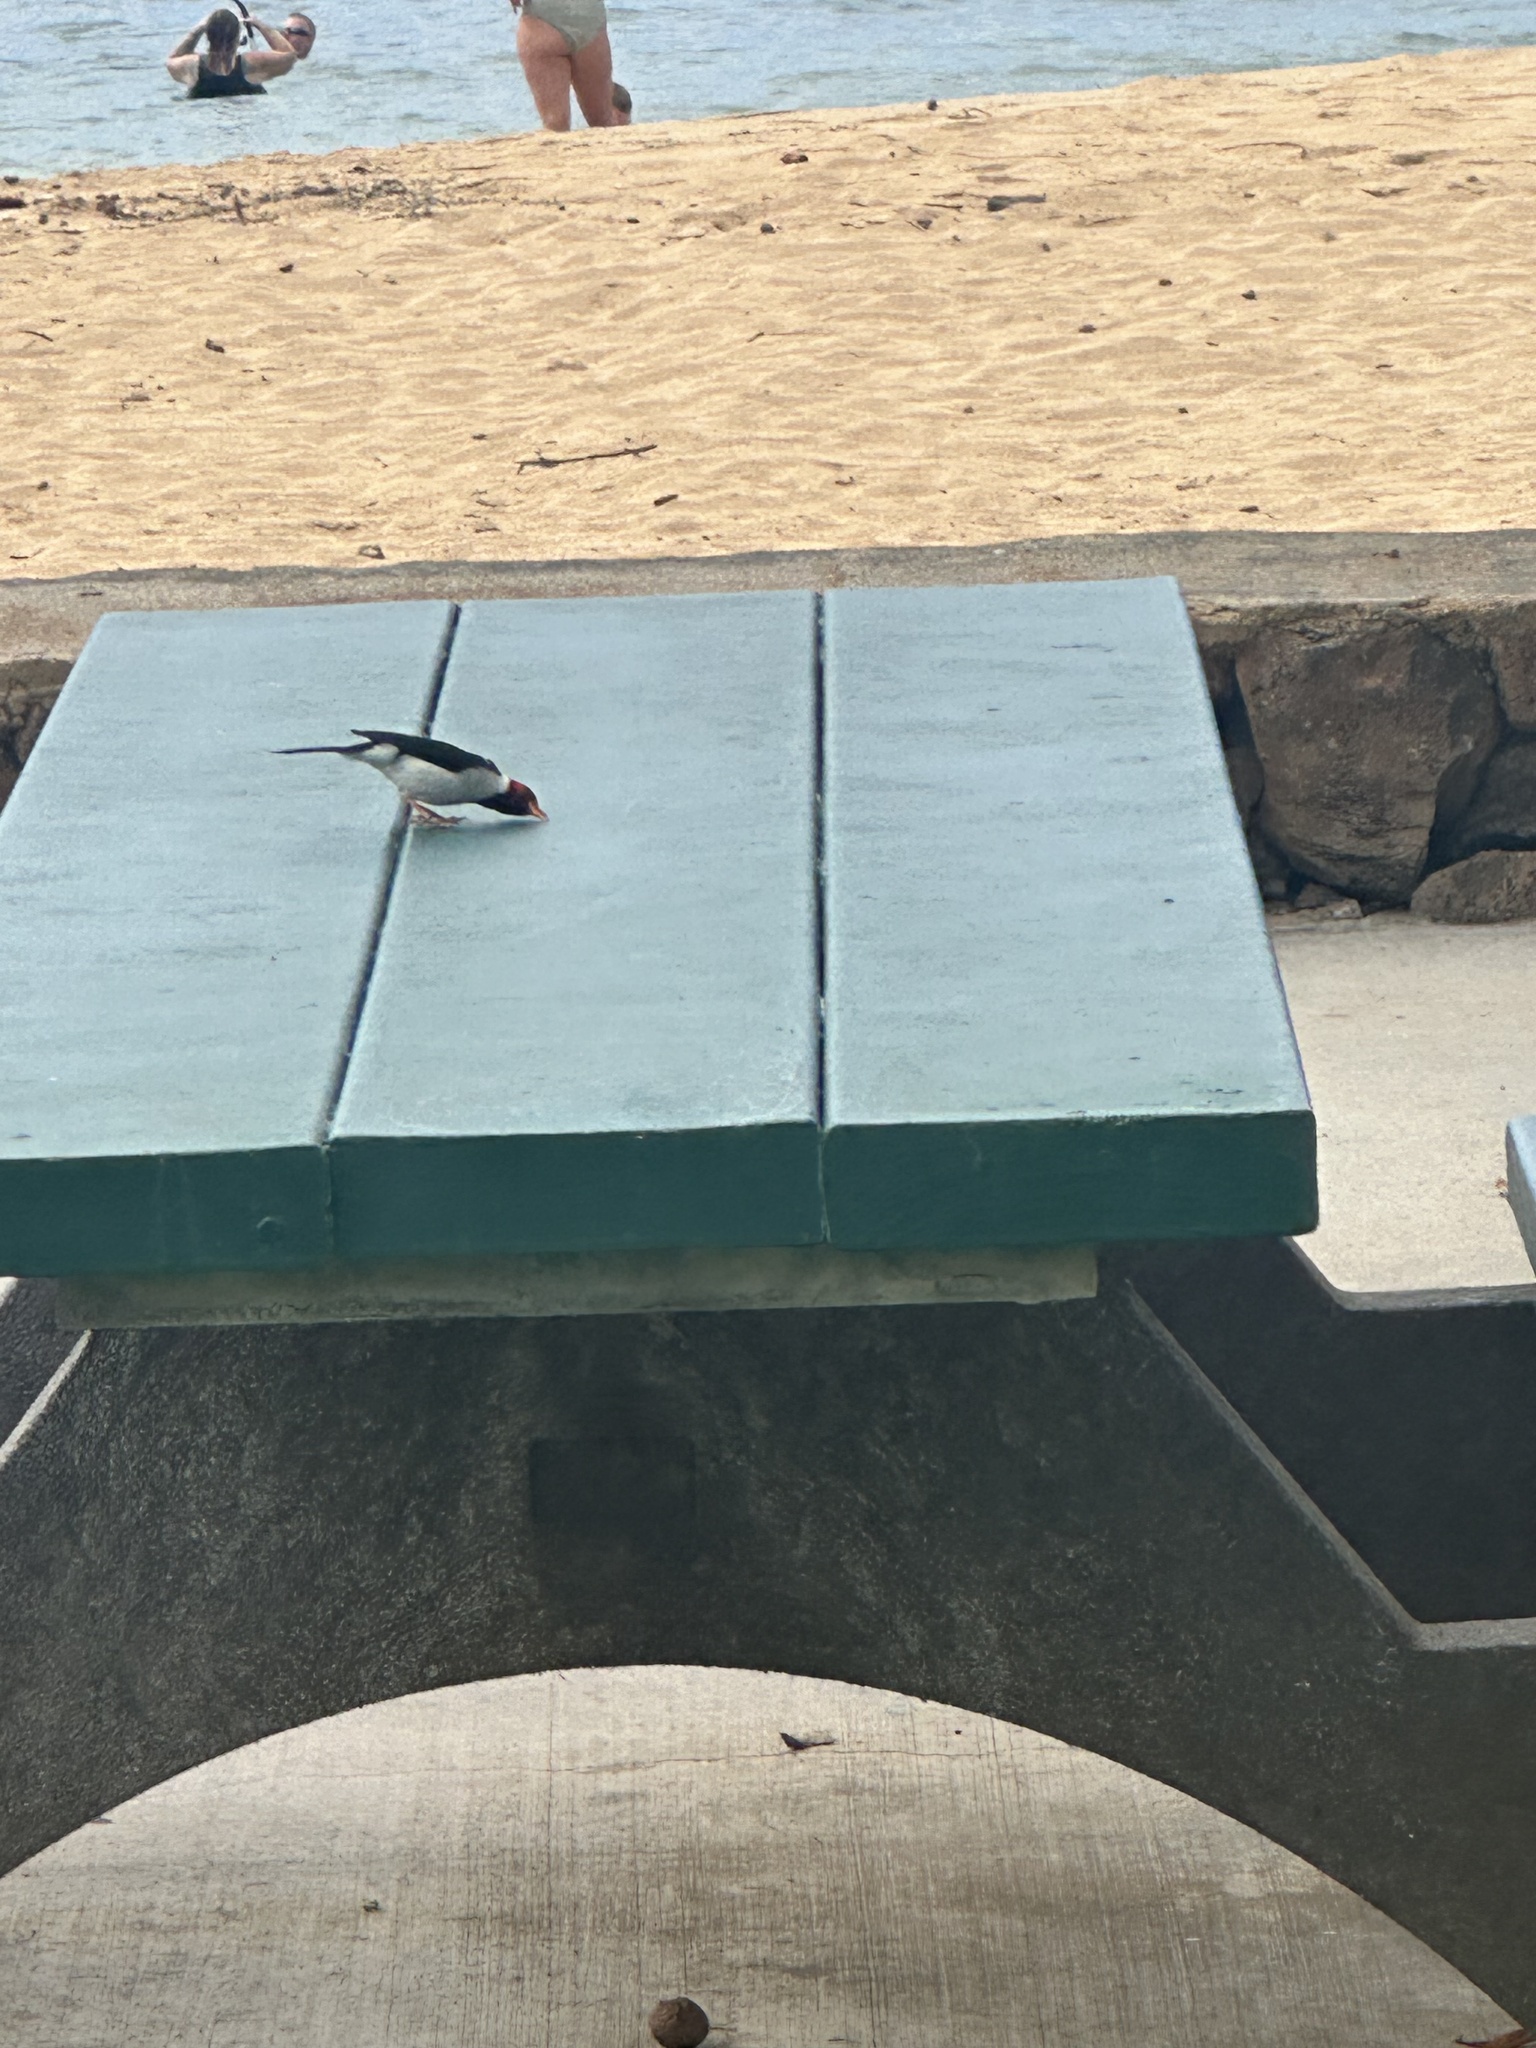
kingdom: Animalia
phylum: Chordata
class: Aves
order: Passeriformes
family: Thraupidae
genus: Paroaria
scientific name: Paroaria capitata
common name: Yellow-billed cardinal
